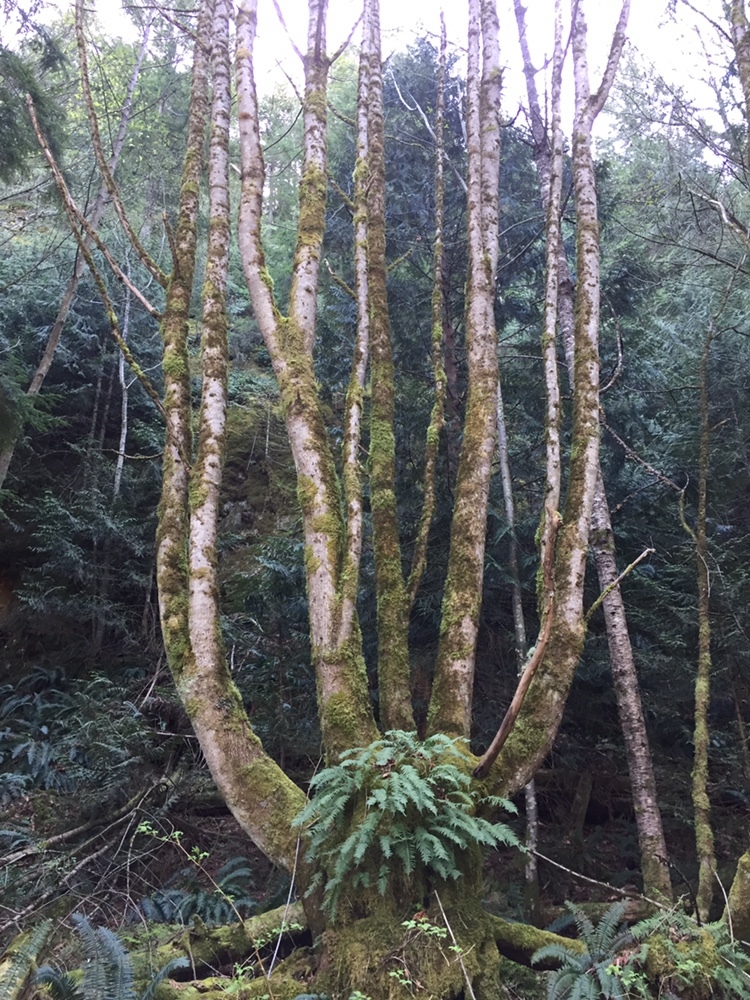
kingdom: Plantae
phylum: Tracheophyta
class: Magnoliopsida
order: Sapindales
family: Sapindaceae
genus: Acer
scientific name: Acer macrophyllum
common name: Oregon maple
